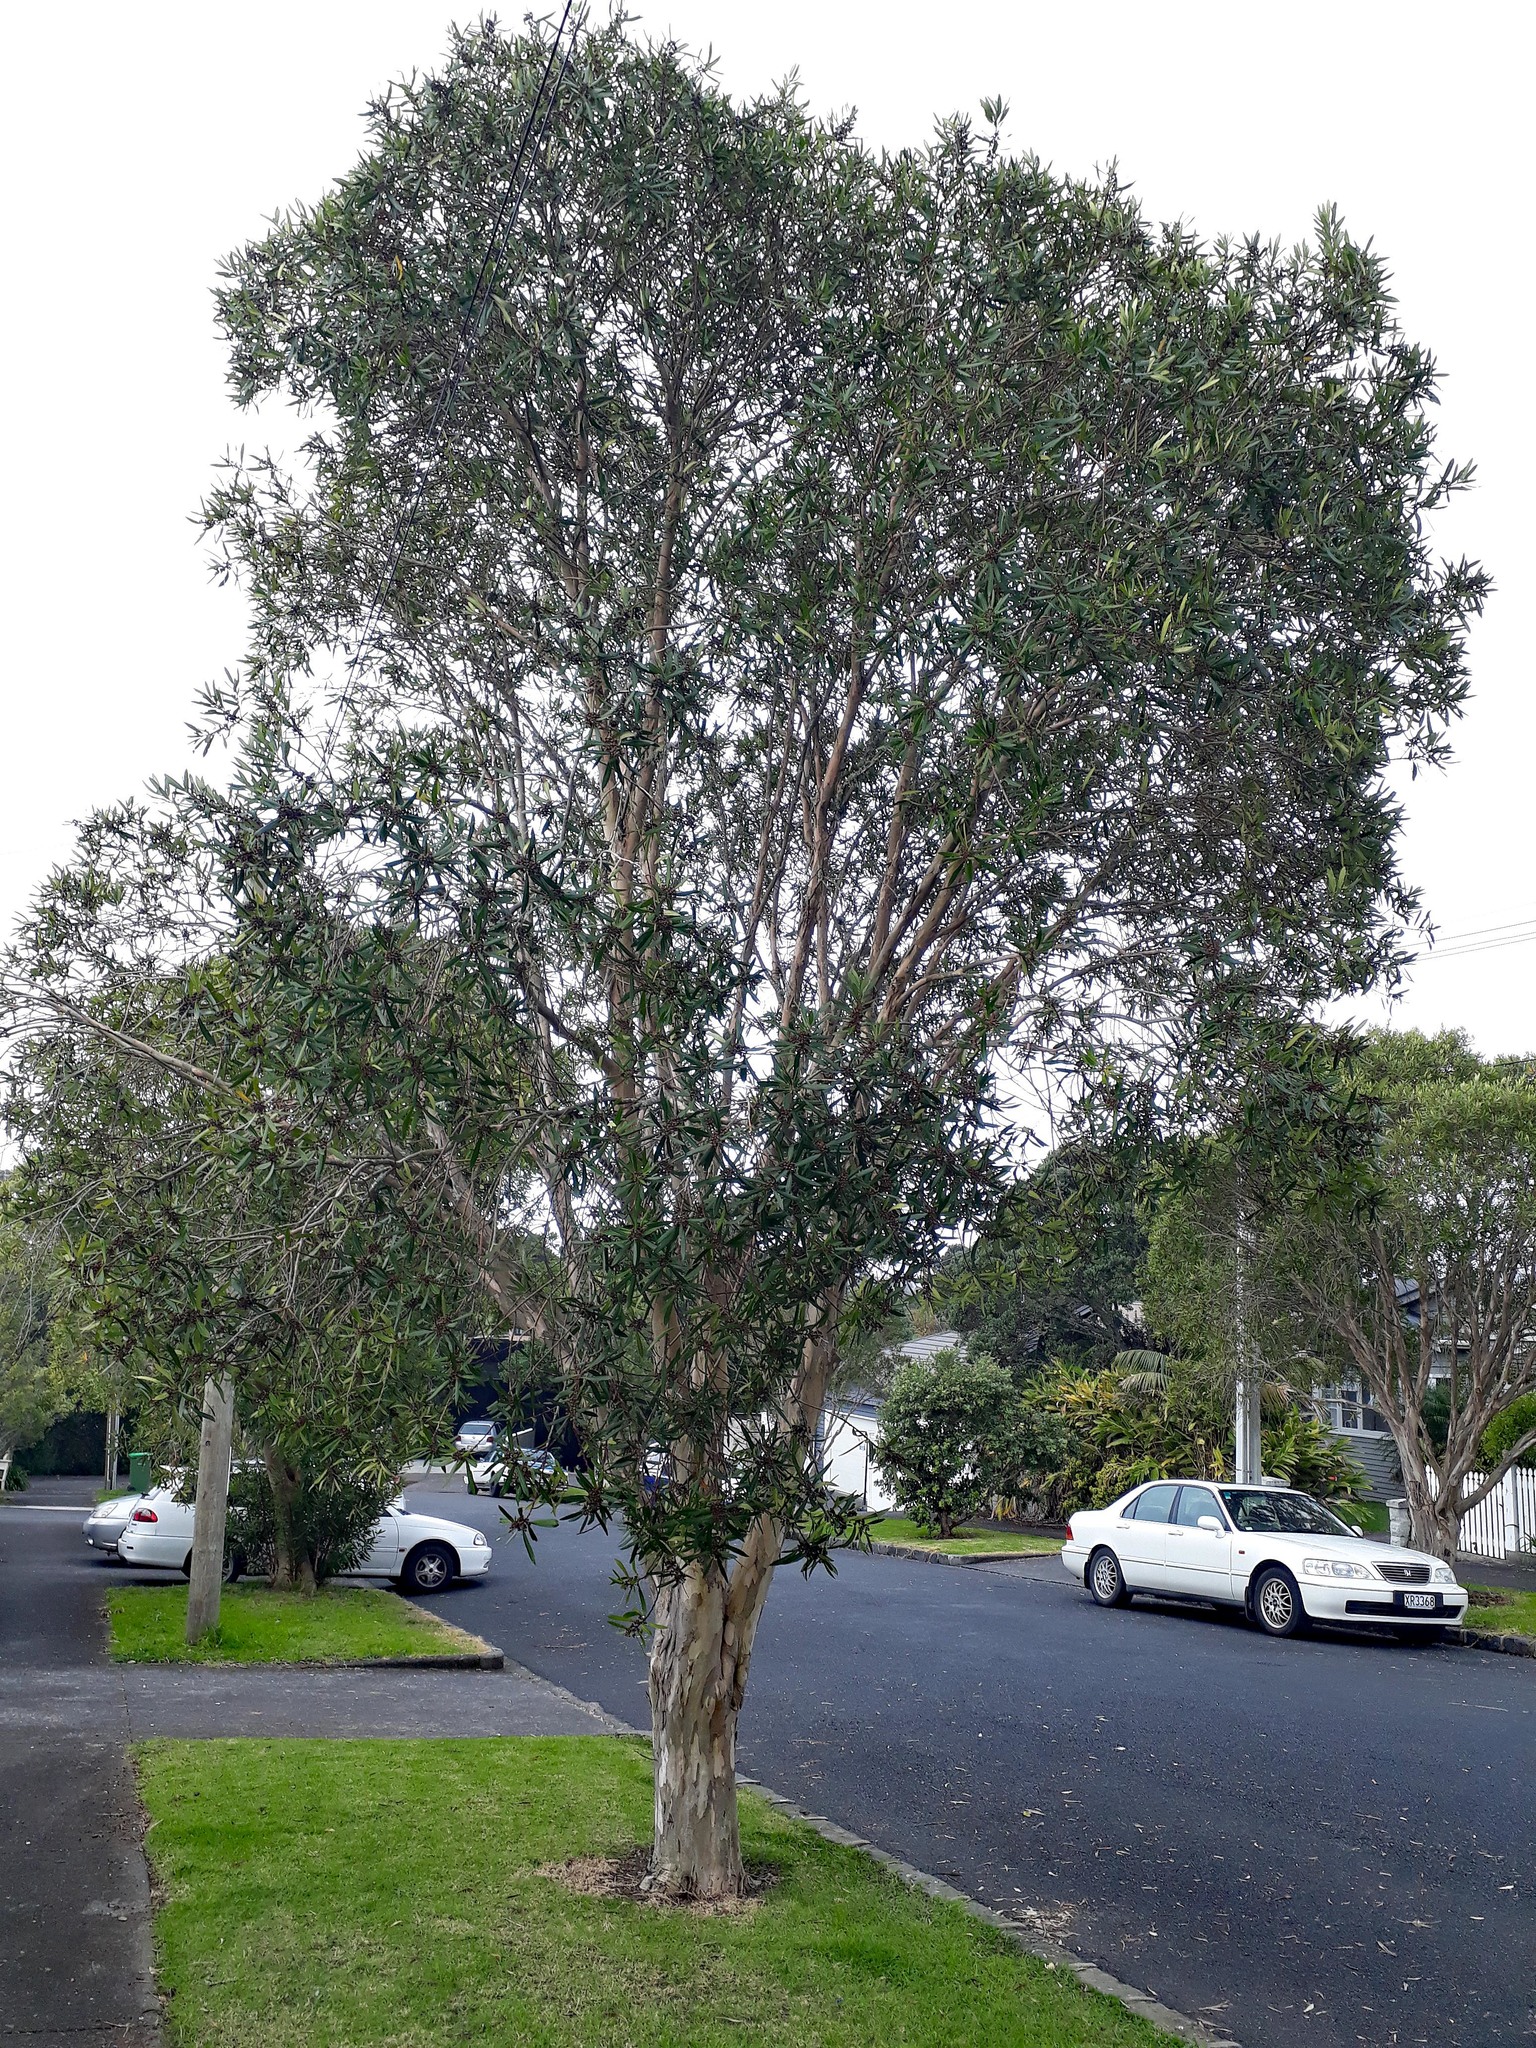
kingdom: Plantae
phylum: Tracheophyta
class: Magnoliopsida
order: Myrtales
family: Myrtaceae
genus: Tristaniopsis
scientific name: Tristaniopsis laurina
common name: Water-gum
